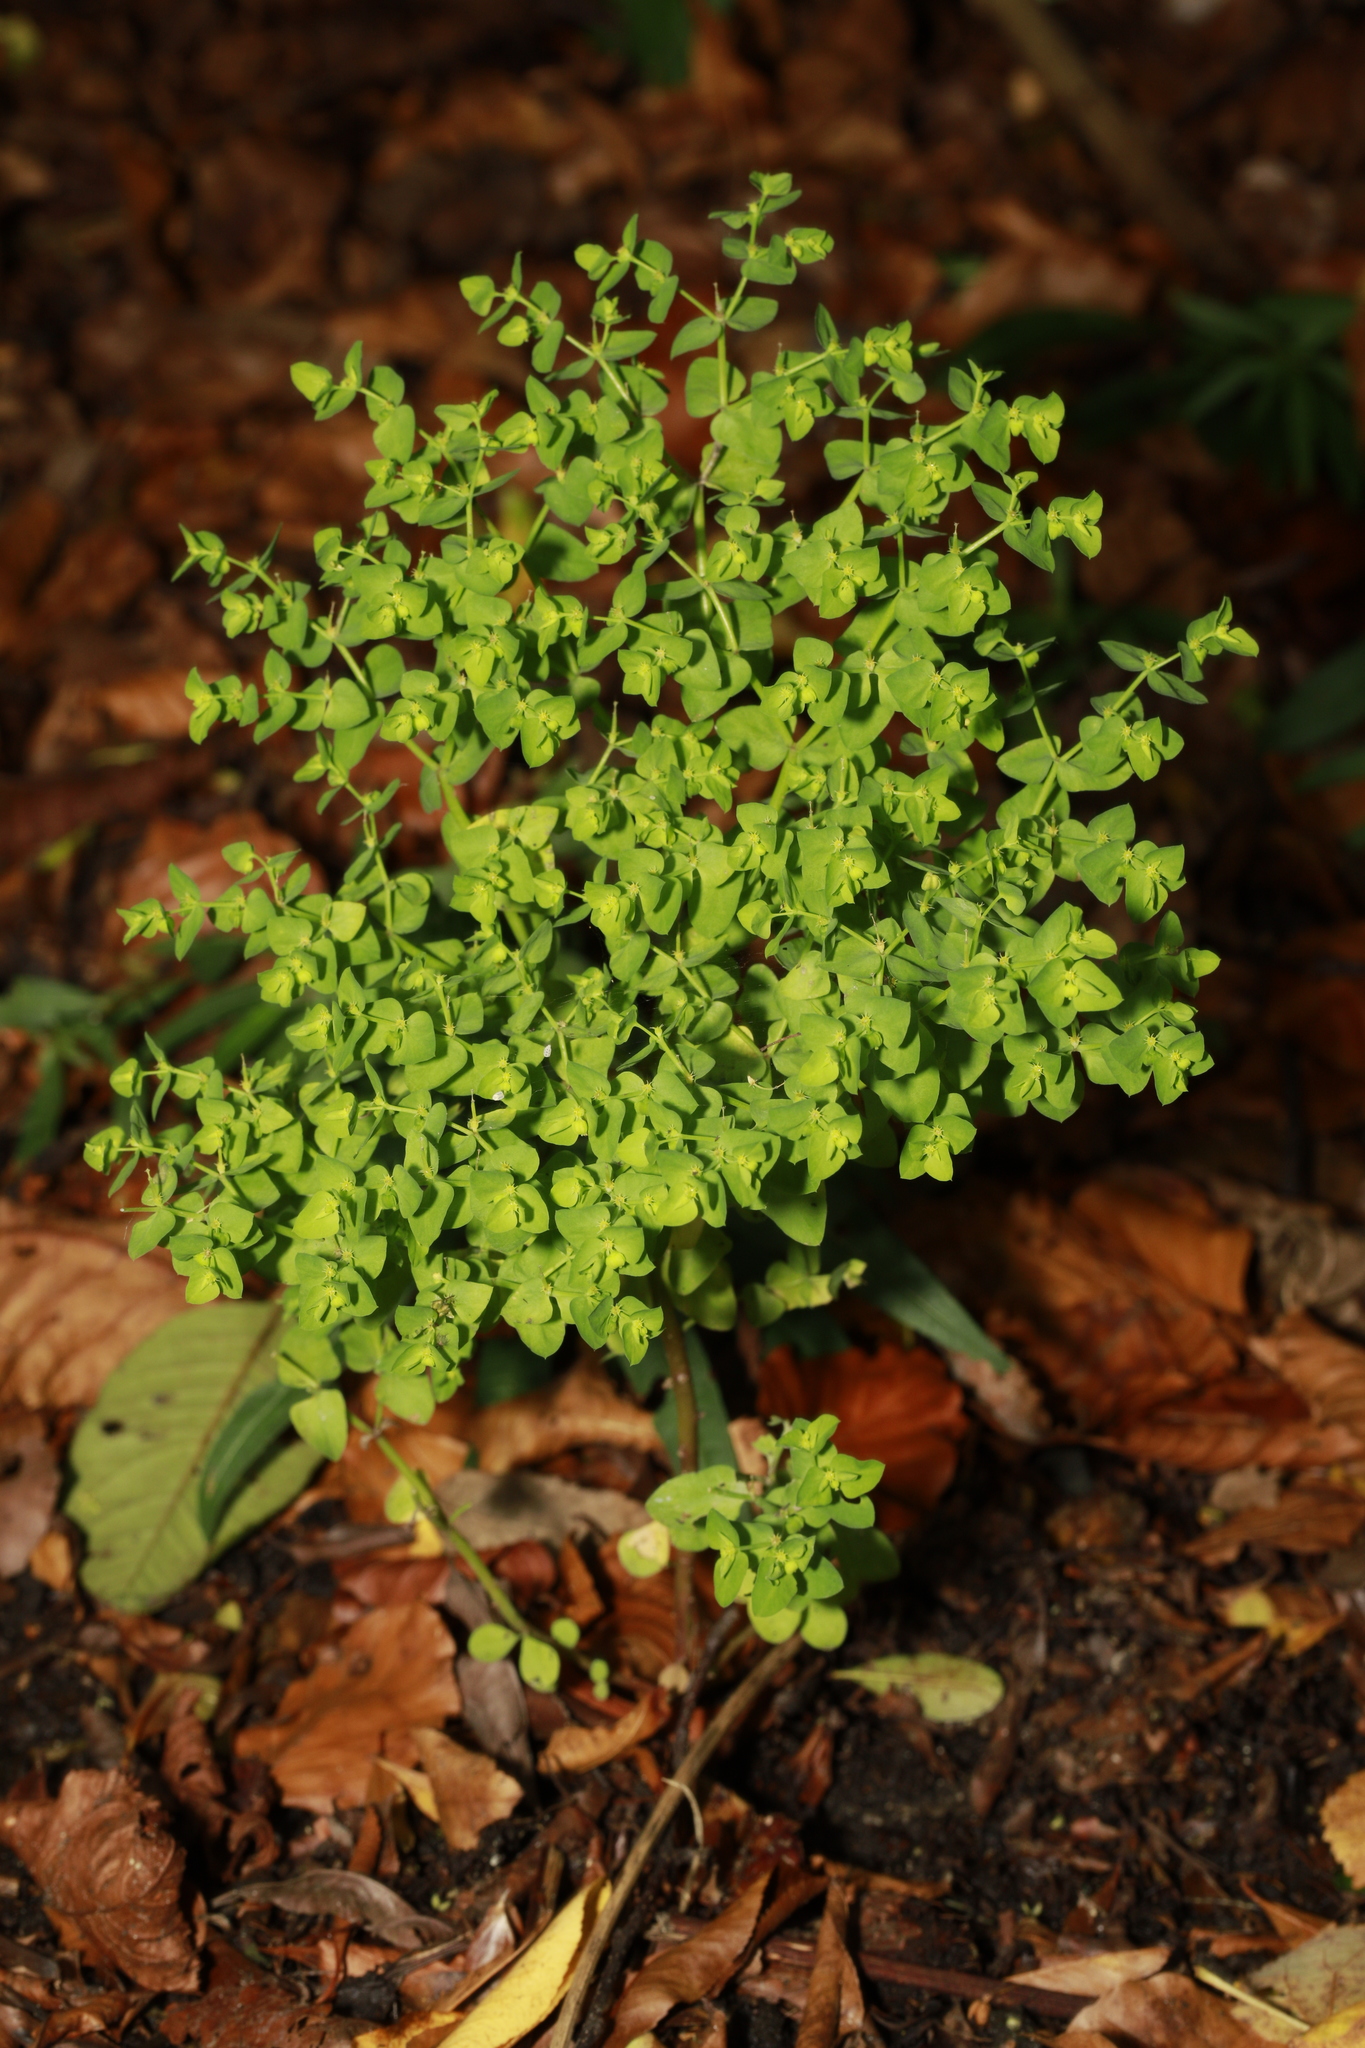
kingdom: Plantae
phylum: Tracheophyta
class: Magnoliopsida
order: Malpighiales
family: Euphorbiaceae
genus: Euphorbia
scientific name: Euphorbia peplus
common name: Petty spurge
